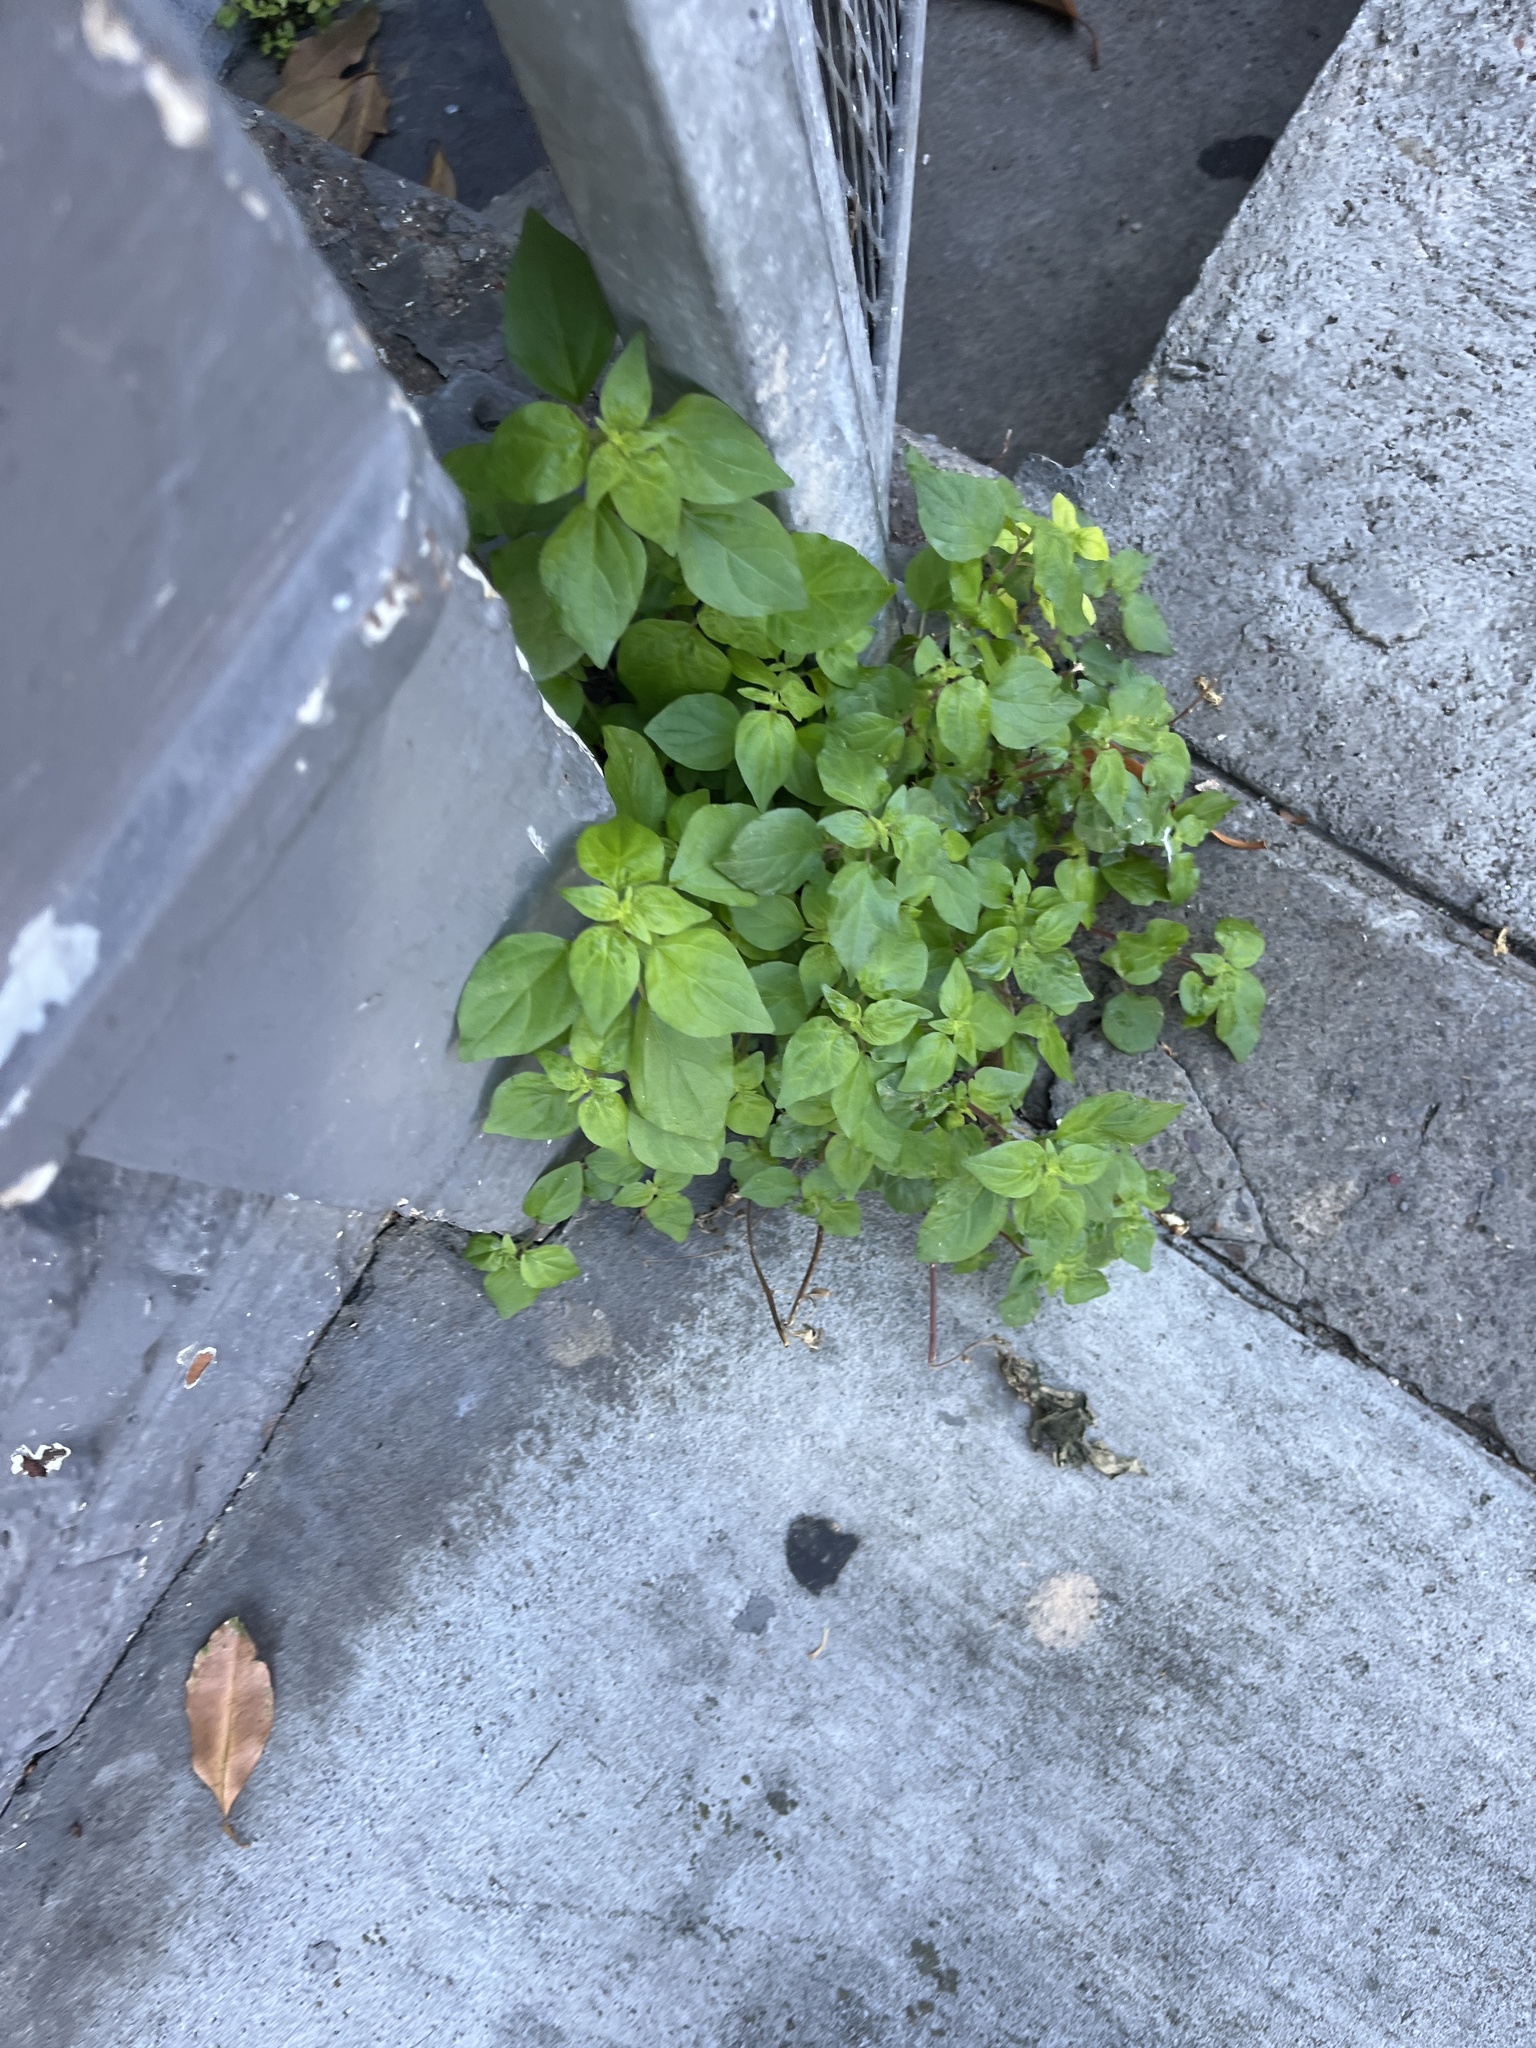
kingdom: Plantae
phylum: Tracheophyta
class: Magnoliopsida
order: Rosales
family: Urticaceae
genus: Parietaria
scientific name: Parietaria judaica
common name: Pellitory-of-the-wall
